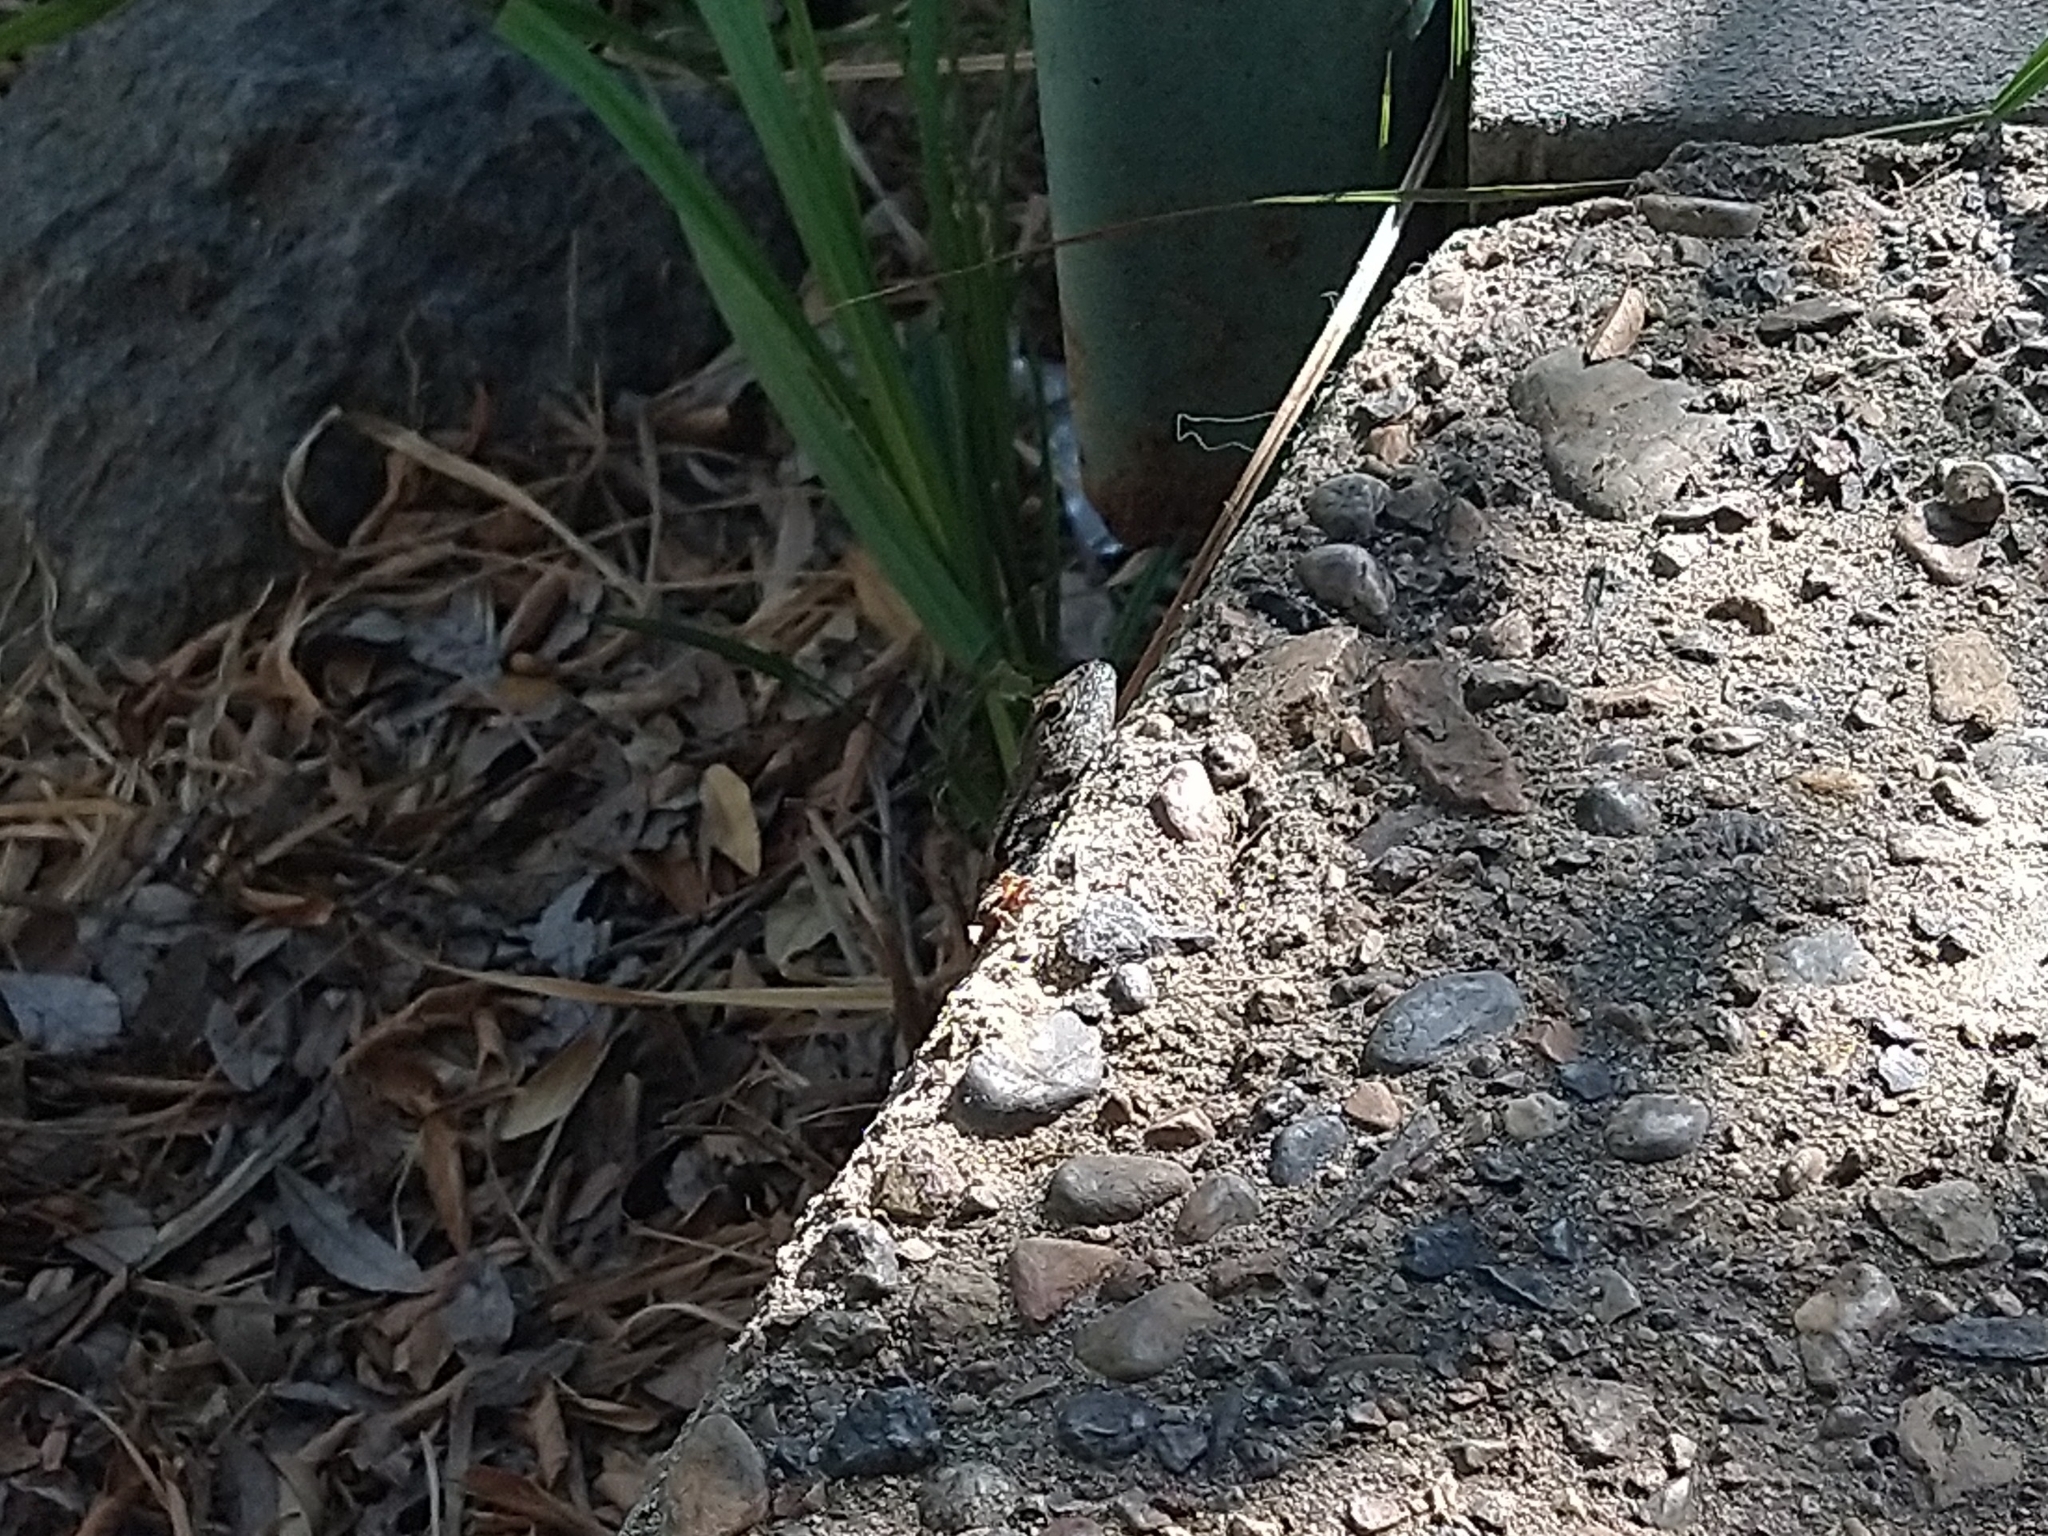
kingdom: Animalia
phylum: Chordata
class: Squamata
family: Phrynosomatidae
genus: Sceloporus
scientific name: Sceloporus occidentalis
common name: Western fence lizard
